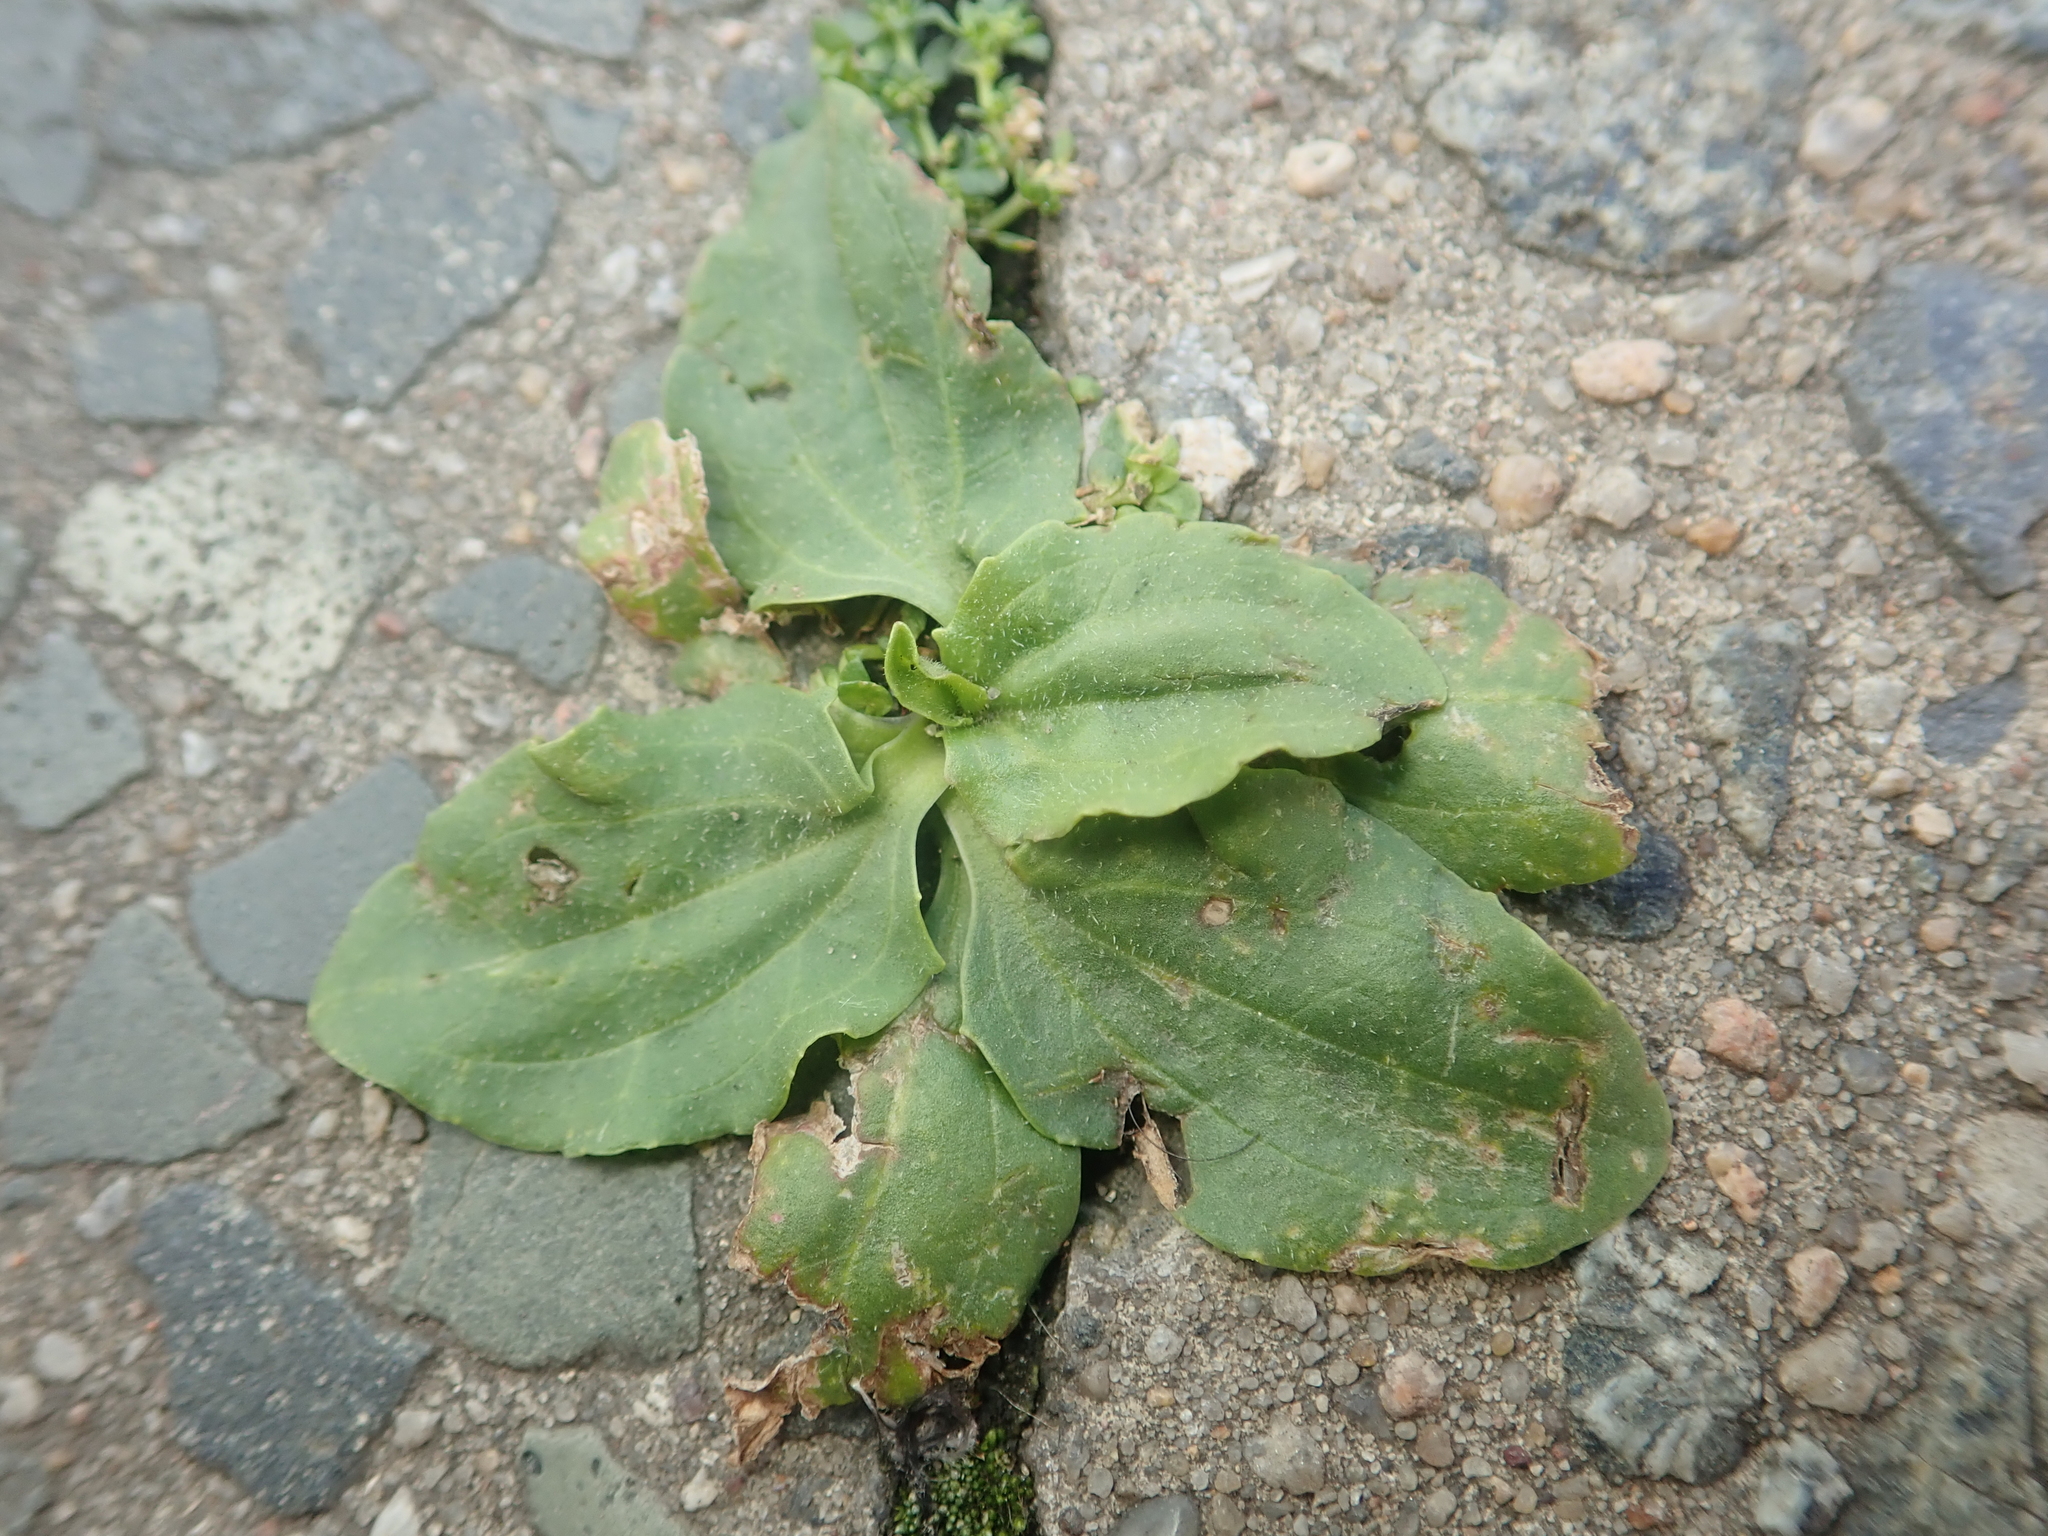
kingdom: Plantae
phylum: Tracheophyta
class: Magnoliopsida
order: Lamiales
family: Plantaginaceae
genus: Plantago
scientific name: Plantago major
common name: Common plantain
